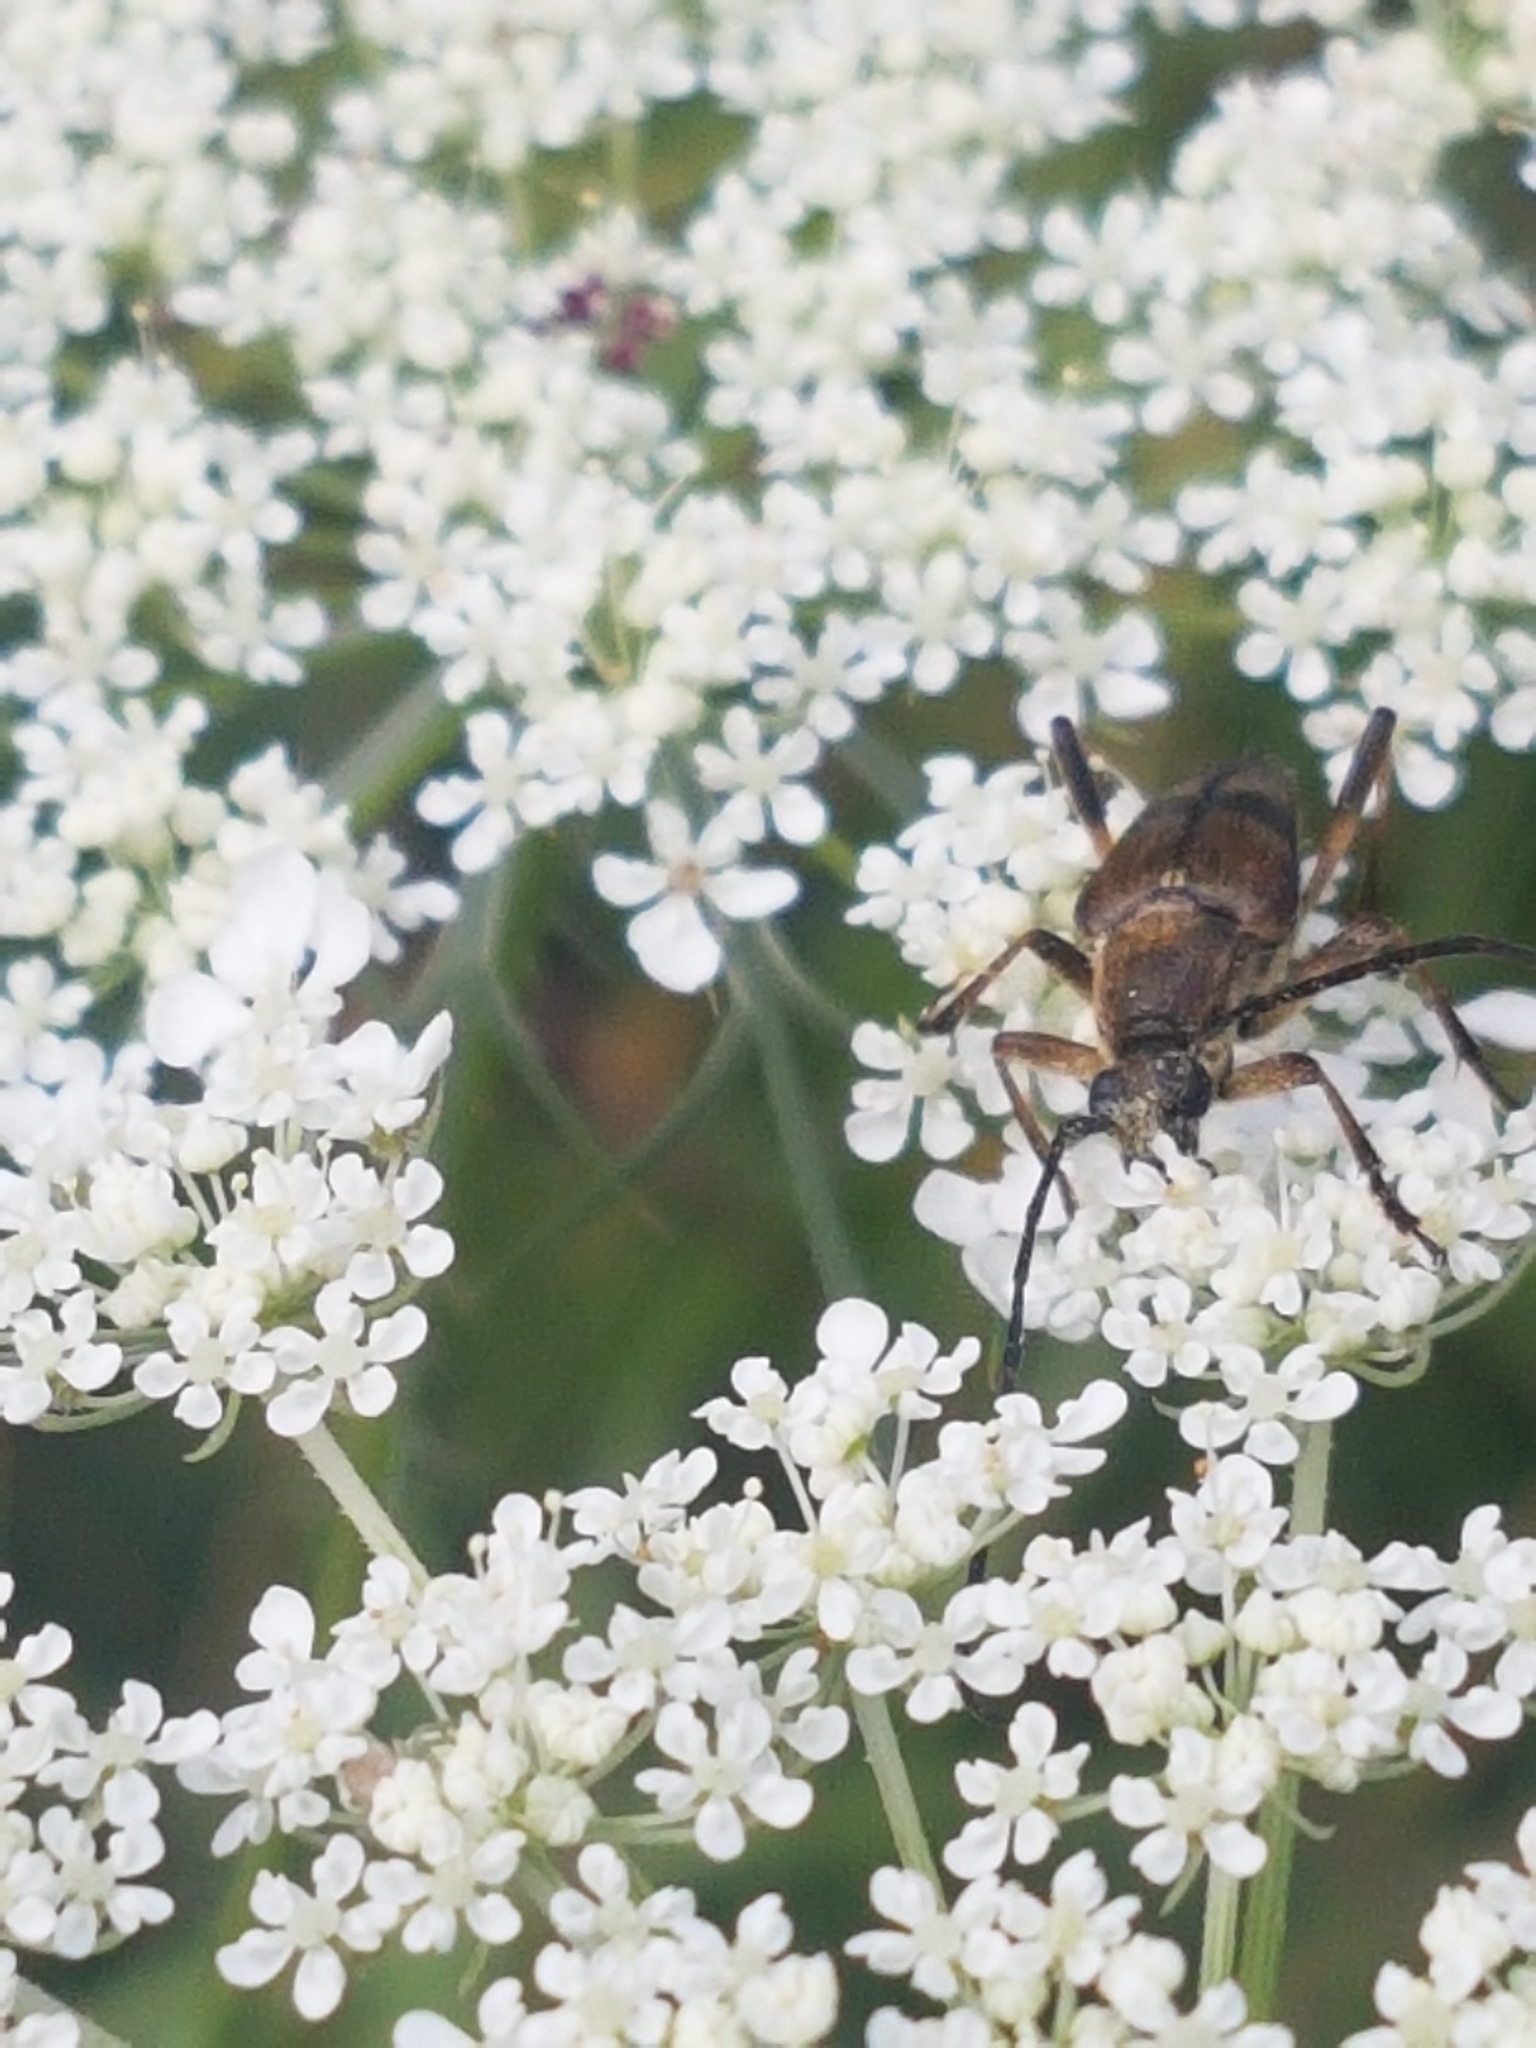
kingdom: Animalia
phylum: Arthropoda
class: Insecta
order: Coleoptera
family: Cerambycidae
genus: Etorofus
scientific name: Etorofus obliteratus
